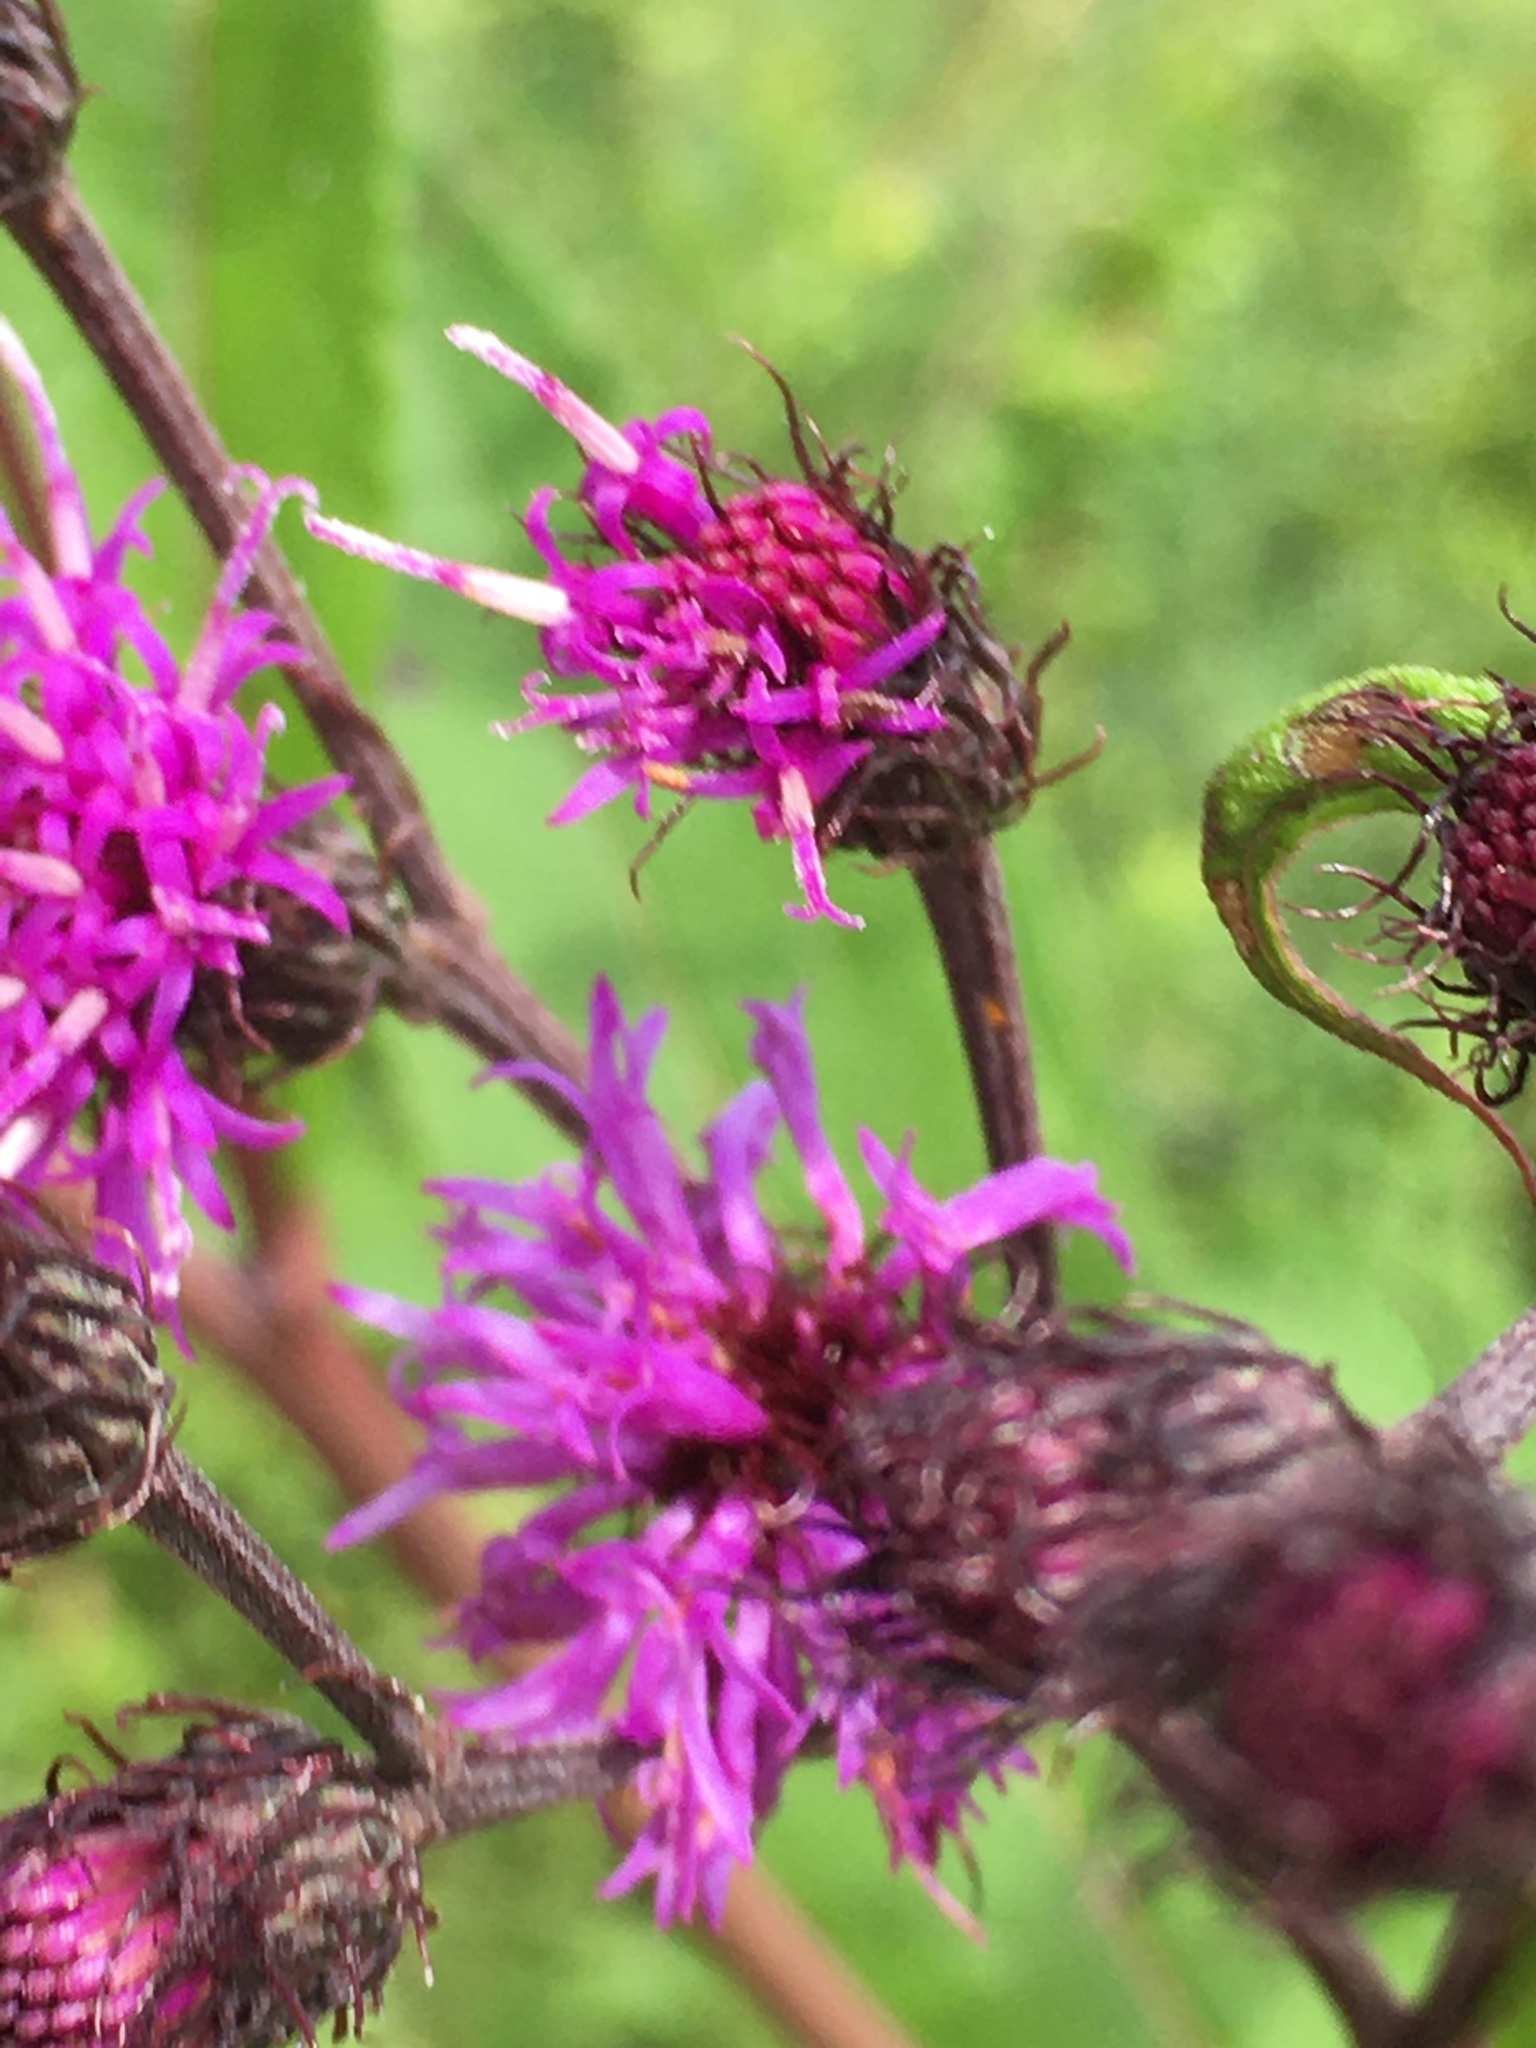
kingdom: Plantae
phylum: Tracheophyta
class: Magnoliopsida
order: Asterales
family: Asteraceae
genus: Vernonia
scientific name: Vernonia noveboracensis
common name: New york ironweed
